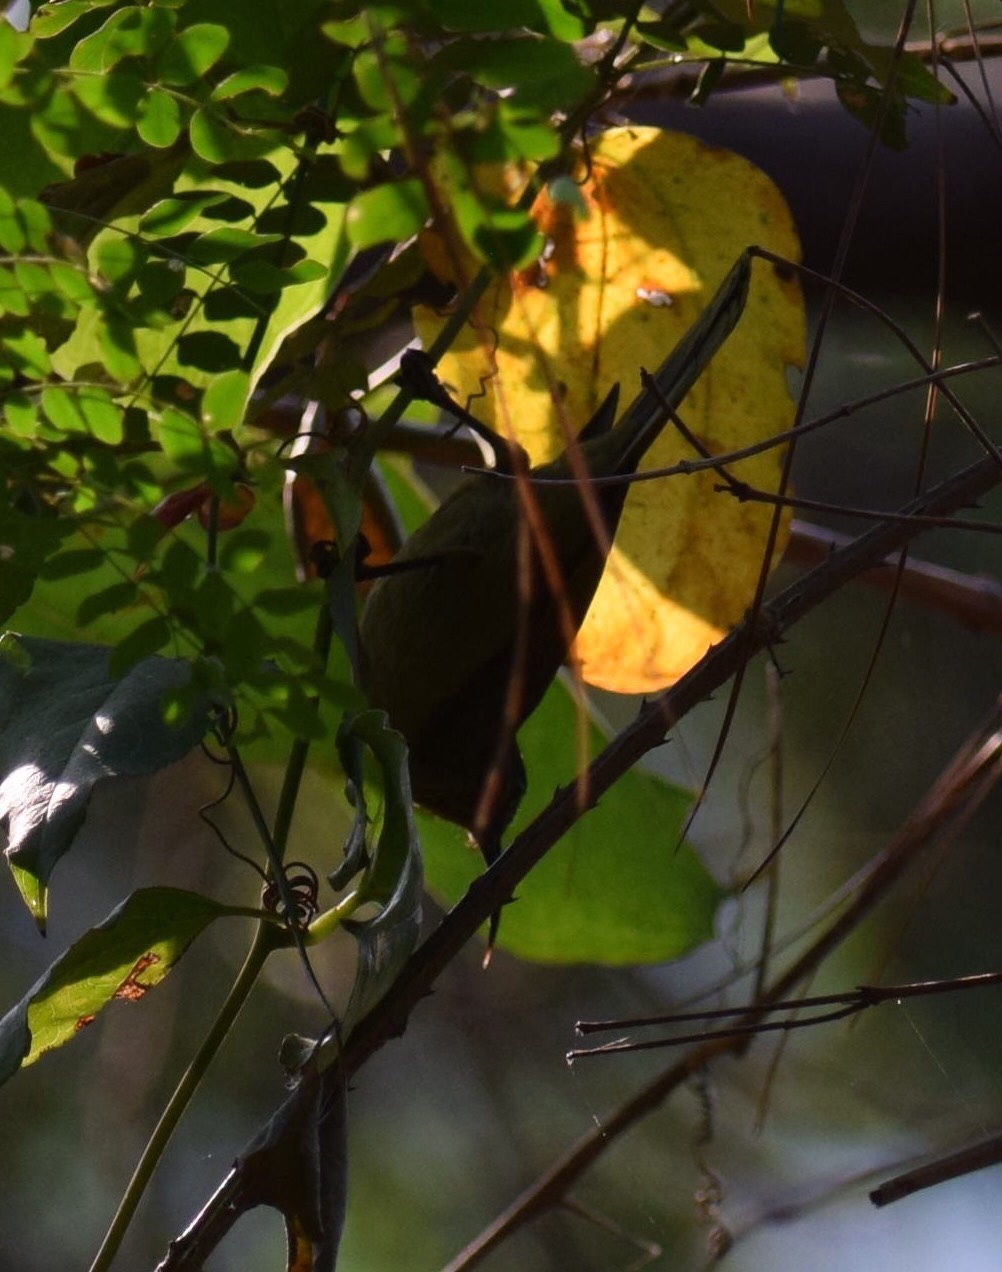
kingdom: Animalia
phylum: Chordata
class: Aves
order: Passeriformes
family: Nectariniidae
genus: Cyanomitra
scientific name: Cyanomitra olivacea
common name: Olive sunbird
